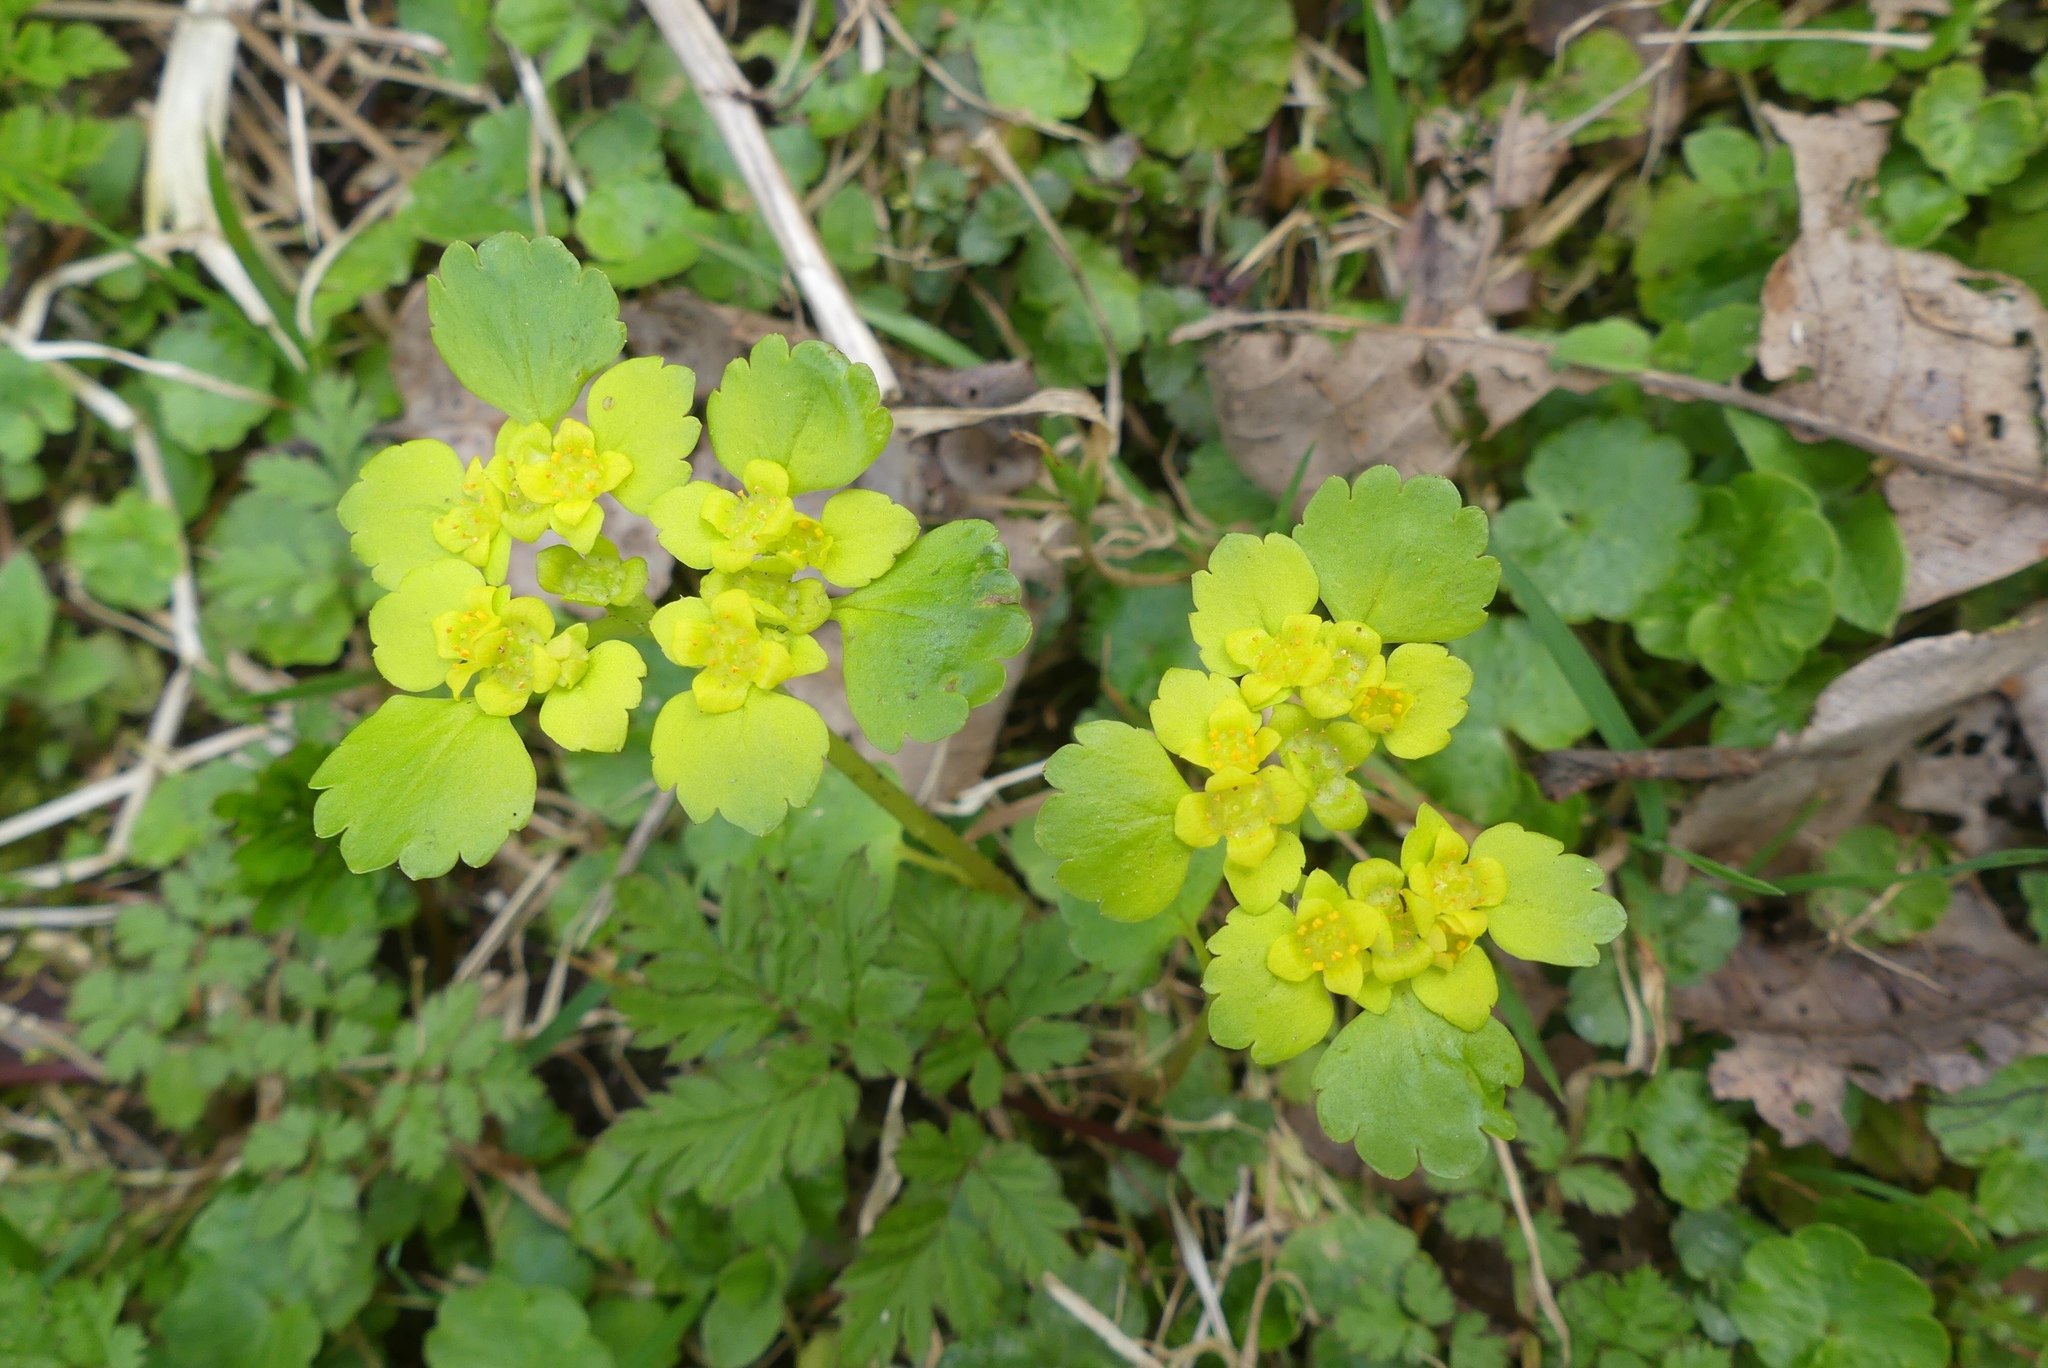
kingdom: Plantae
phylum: Tracheophyta
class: Magnoliopsida
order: Saxifragales
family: Saxifragaceae
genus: Chrysosplenium
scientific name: Chrysosplenium alternifolium
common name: Alternate-leaved golden-saxifrage
